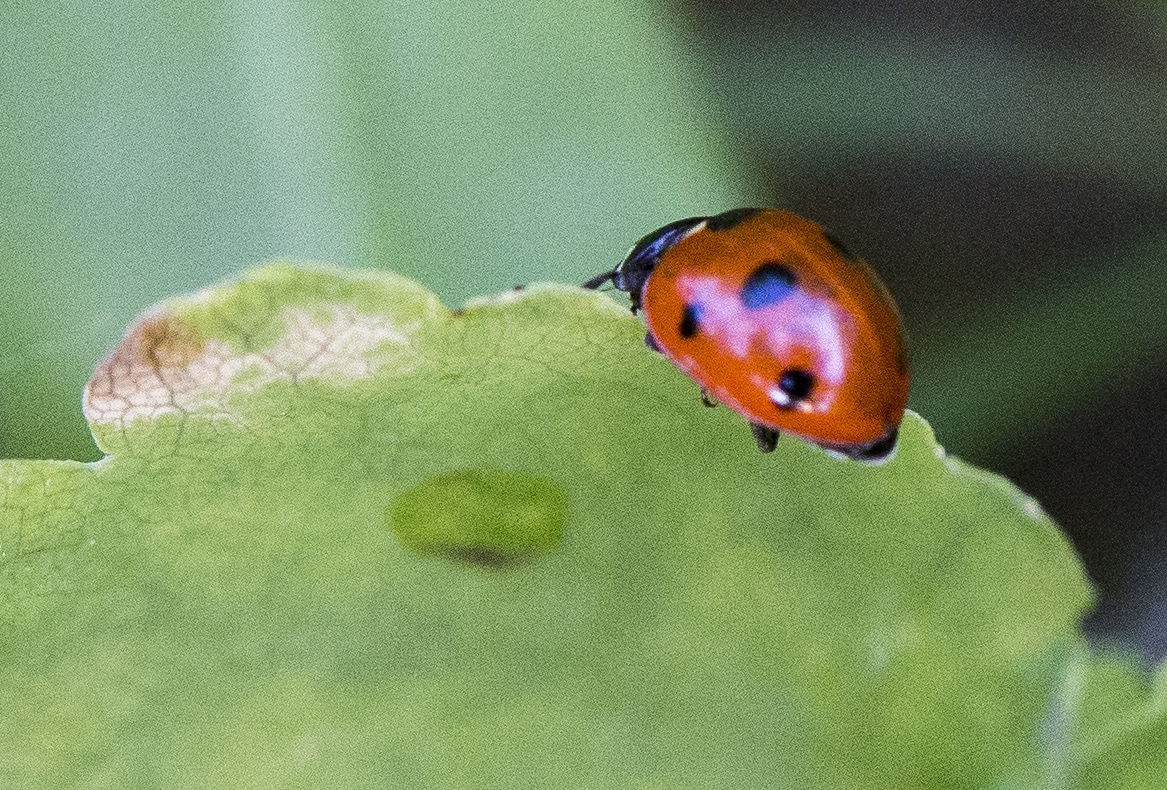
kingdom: Animalia
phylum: Arthropoda
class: Insecta
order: Coleoptera
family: Coccinellidae
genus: Coccinella
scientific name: Coccinella septempunctata
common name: Sevenspotted lady beetle
